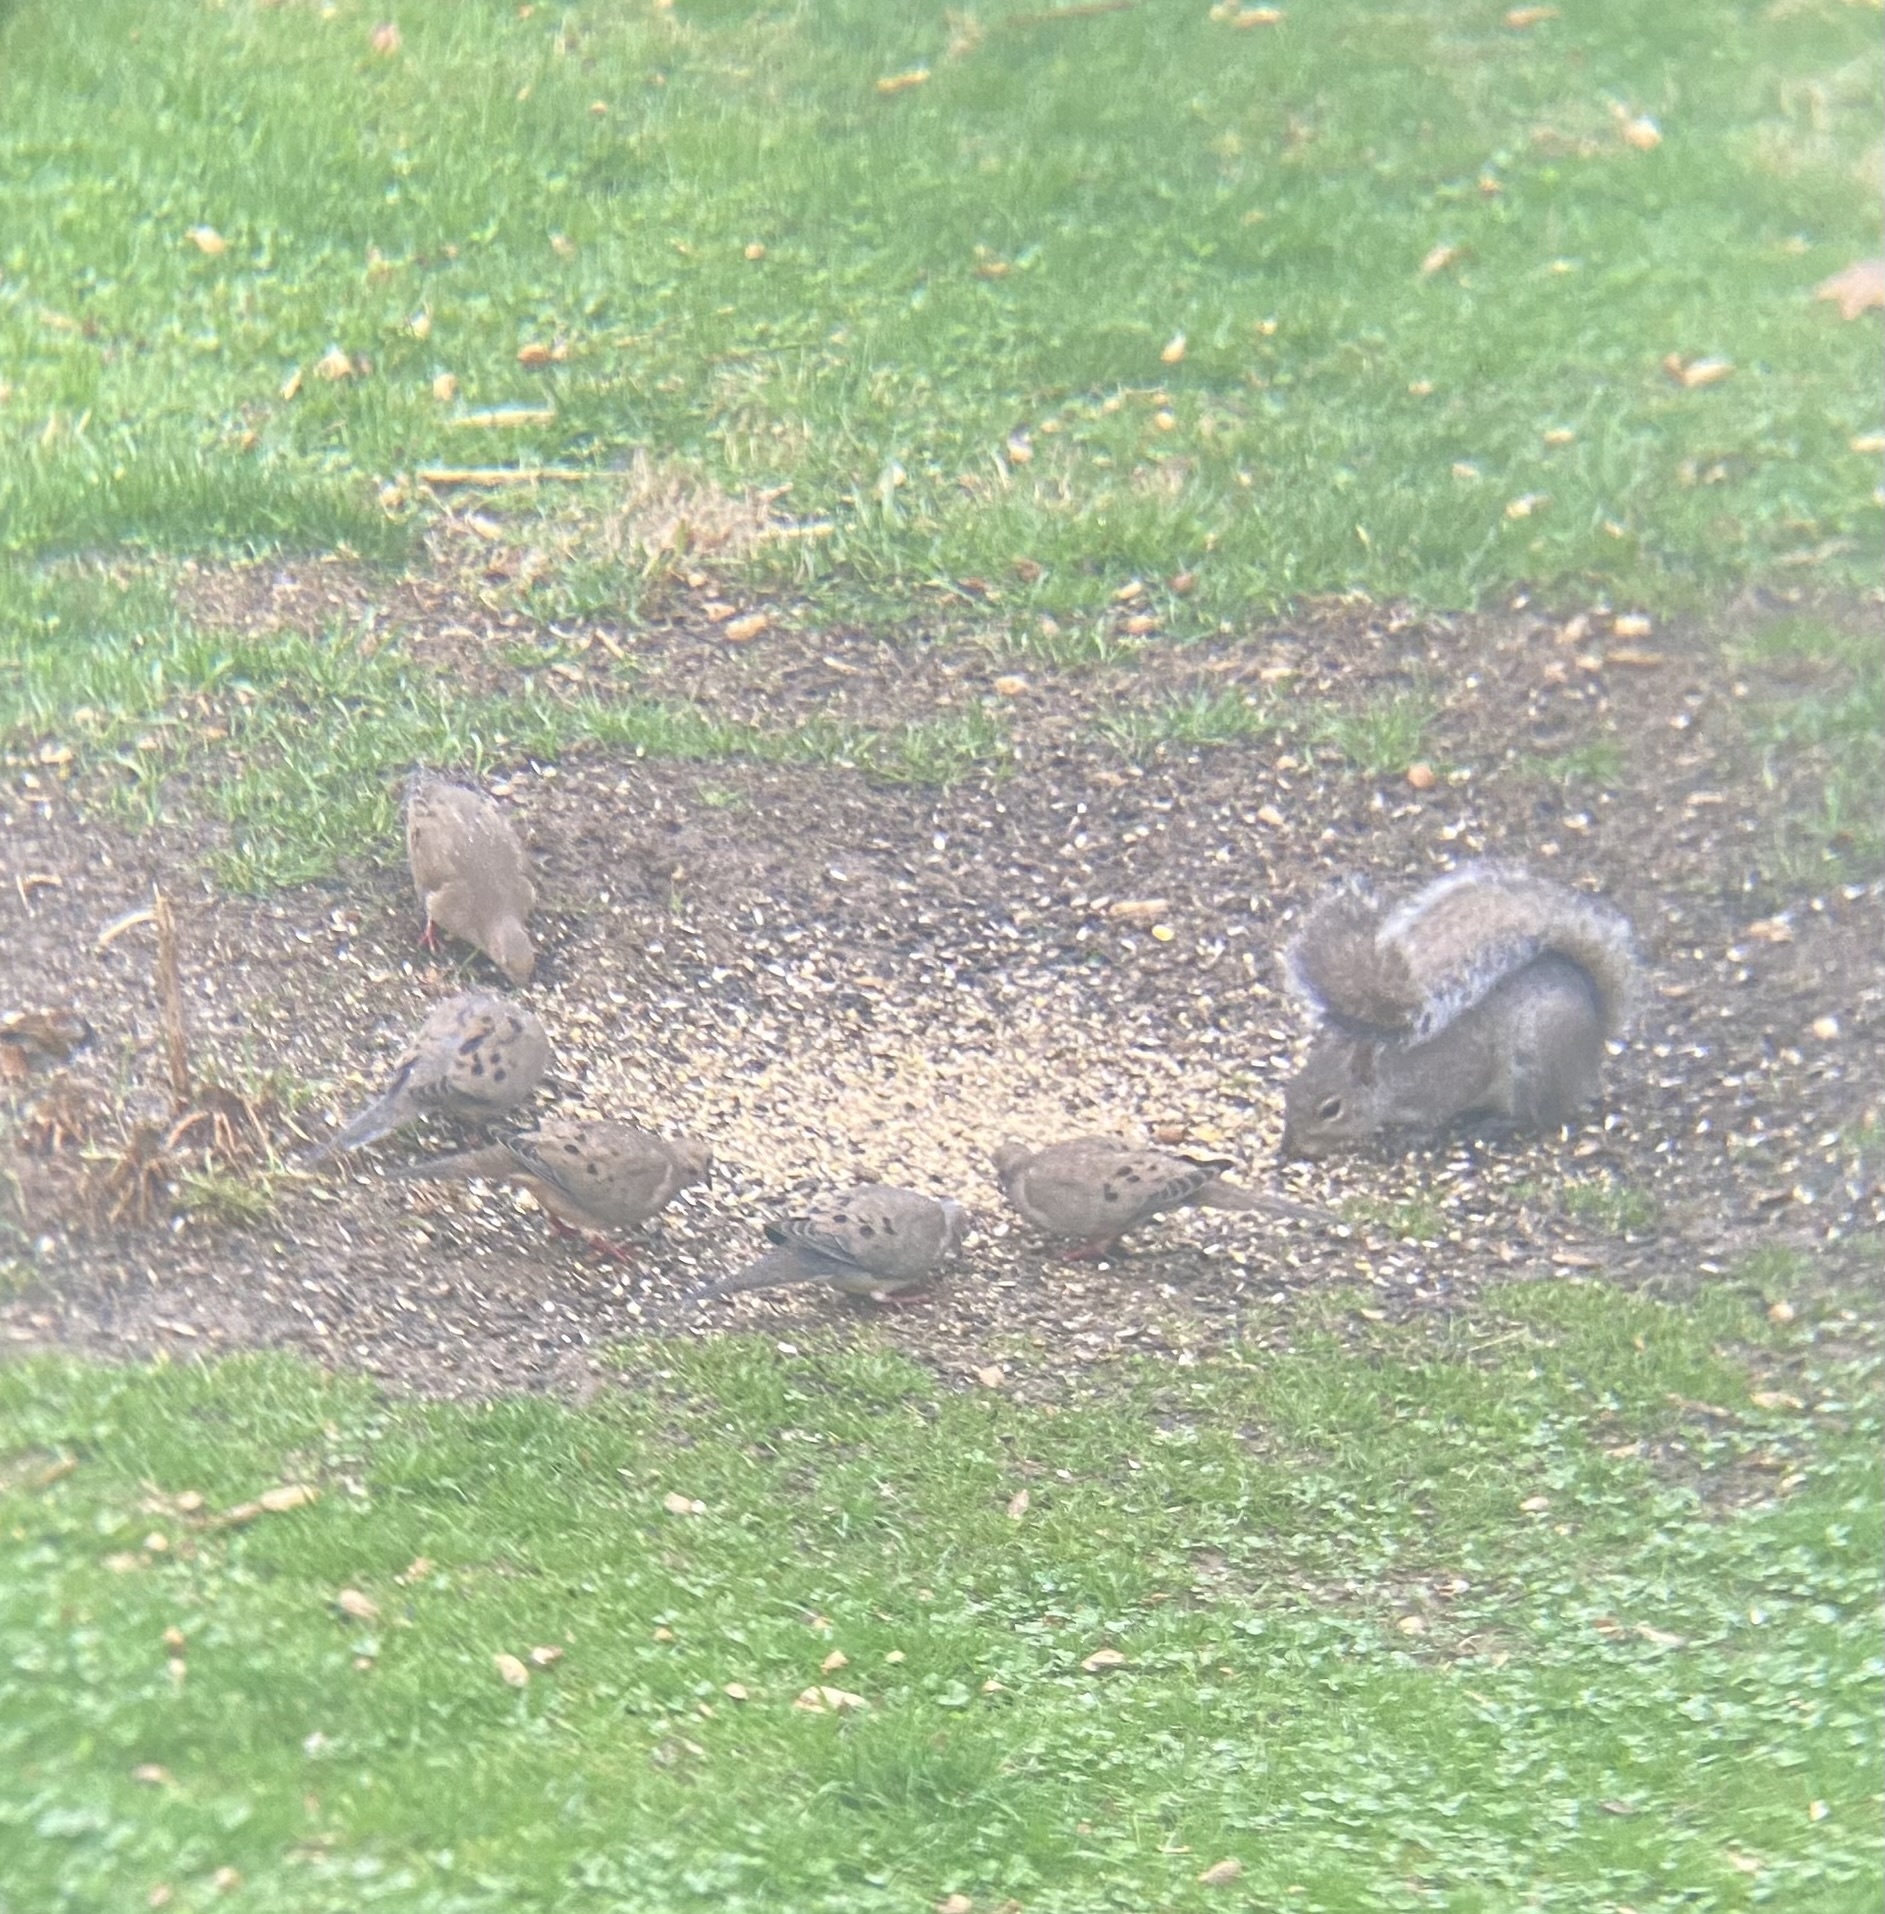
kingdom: Animalia
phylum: Chordata
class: Aves
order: Columbiformes
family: Columbidae
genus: Zenaida
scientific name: Zenaida macroura
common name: Mourning dove
